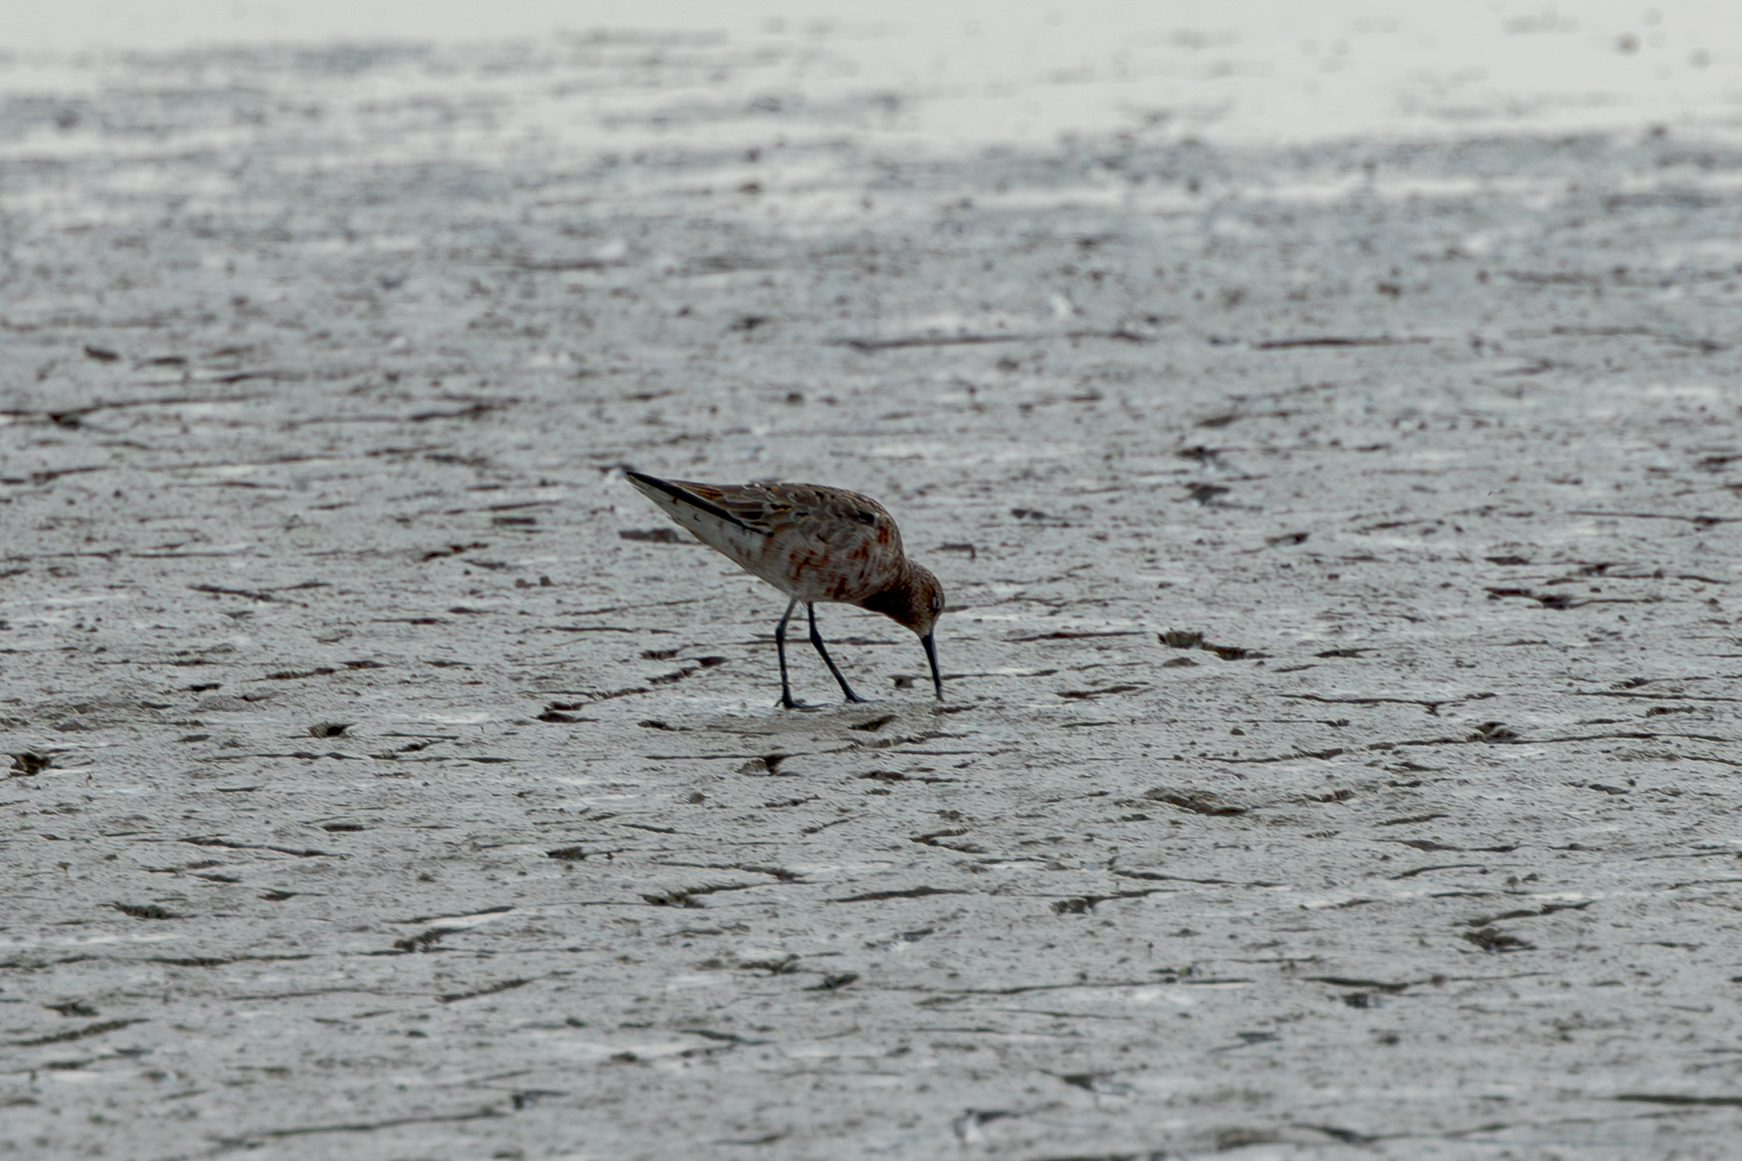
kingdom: Animalia
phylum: Chordata
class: Aves
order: Charadriiformes
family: Scolopacidae
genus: Calidris
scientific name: Calidris ferruginea
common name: Curlew sandpiper
